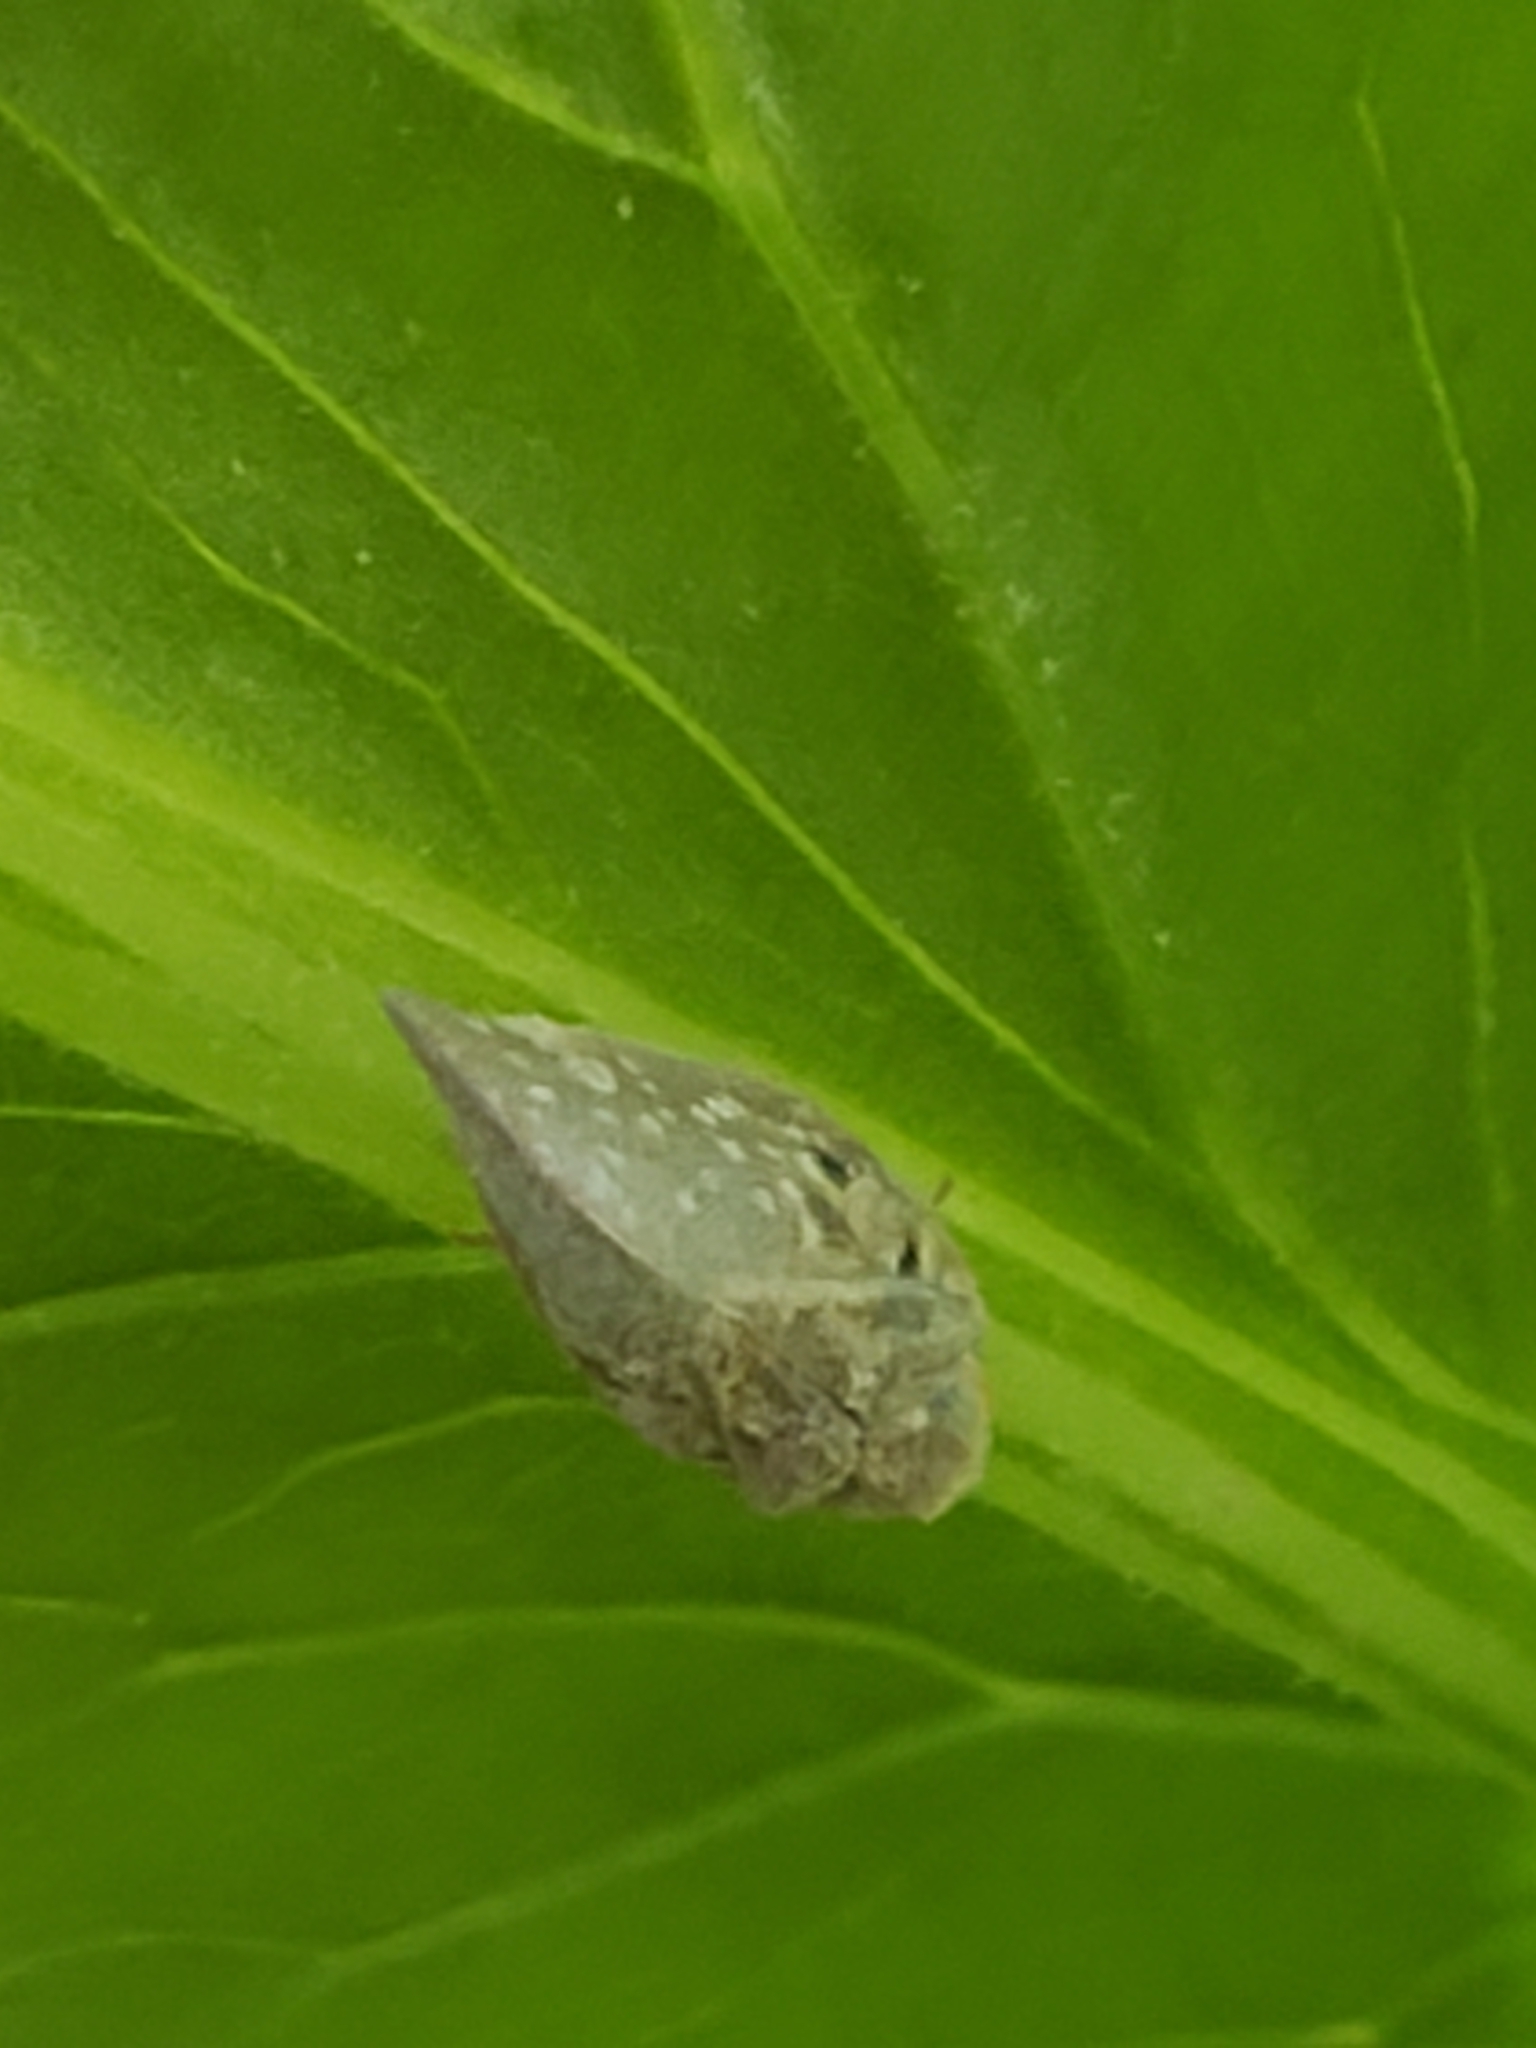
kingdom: Animalia
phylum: Arthropoda
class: Insecta
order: Hemiptera
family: Flatidae
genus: Metcalfa
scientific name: Metcalfa pruinosa
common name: Citrus flatid planthopper
